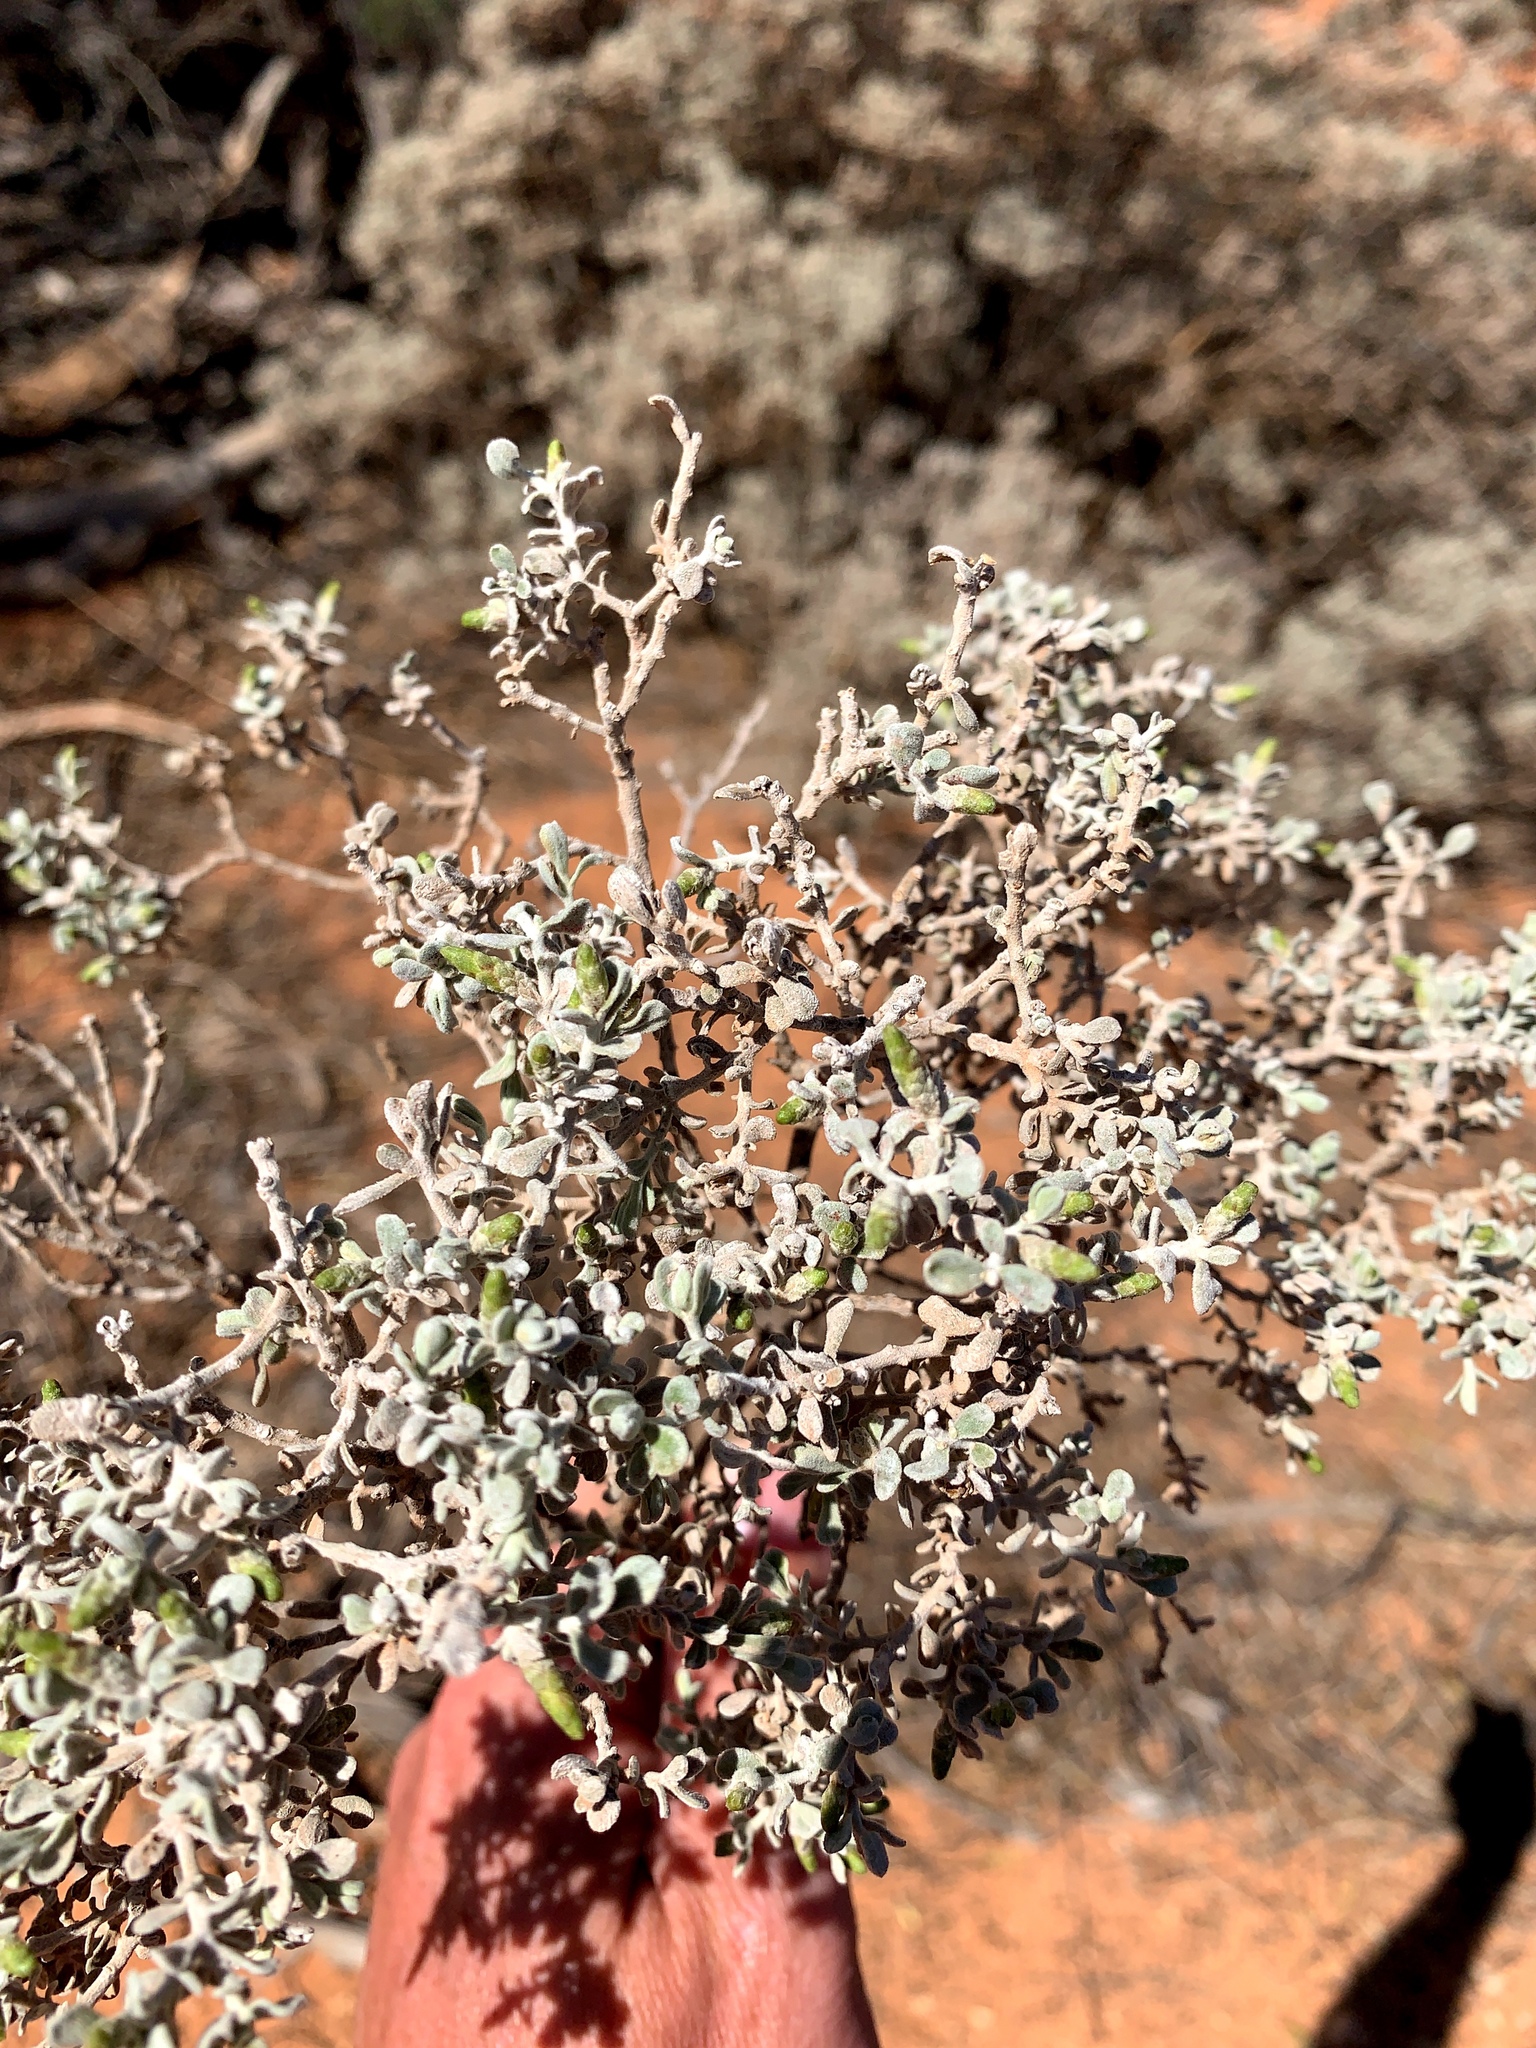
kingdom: Plantae
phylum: Tracheophyta
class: Magnoliopsida
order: Asterales
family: Asteraceae
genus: Cratystylis
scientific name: Cratystylis conocephala
